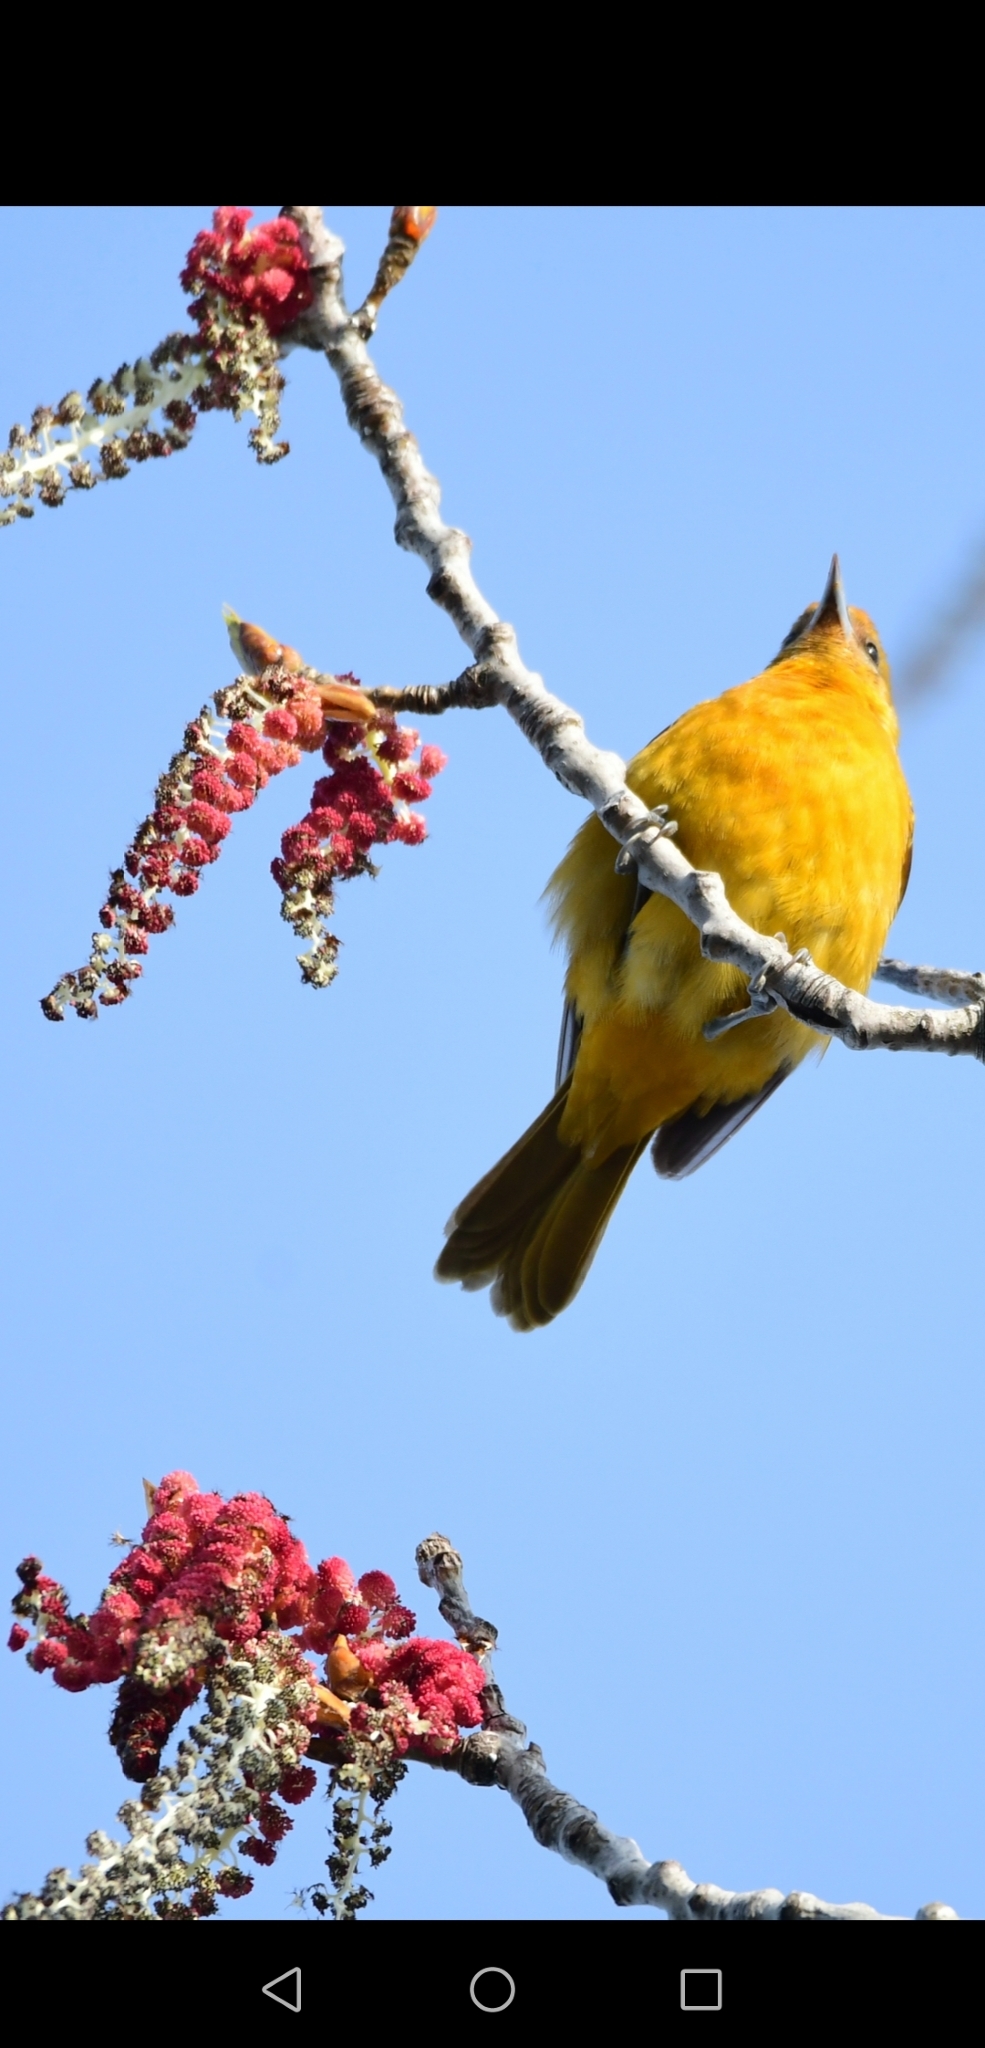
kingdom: Animalia
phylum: Chordata
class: Aves
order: Passeriformes
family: Parulidae
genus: Setophaga
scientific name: Setophaga petechia
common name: Yellow warbler
